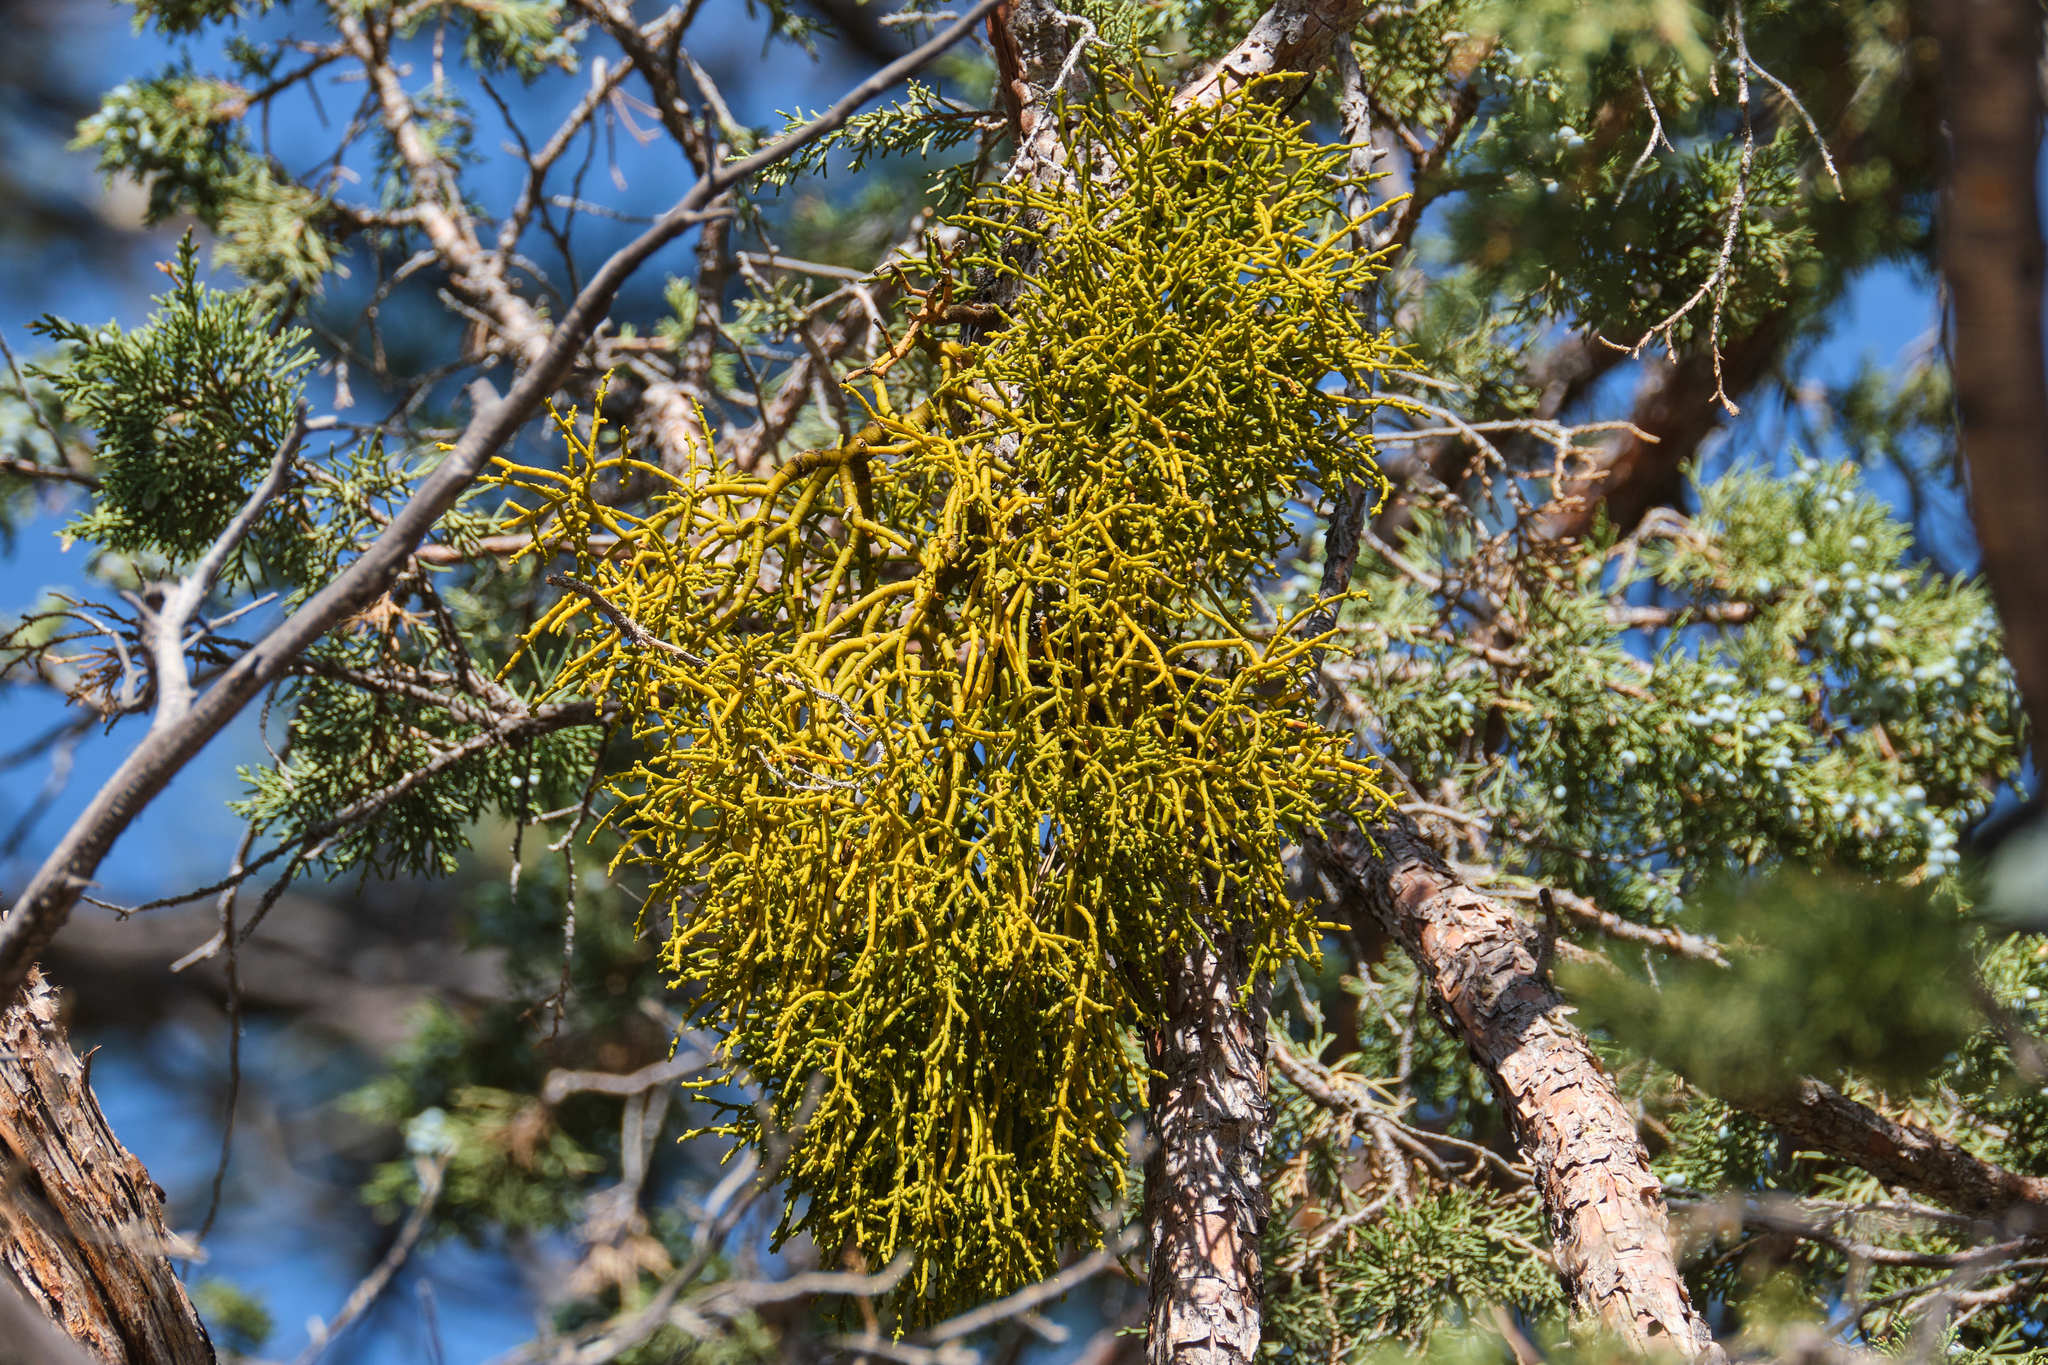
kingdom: Plantae
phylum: Tracheophyta
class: Magnoliopsida
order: Santalales
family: Viscaceae
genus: Phoradendron
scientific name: Phoradendron juniperinum
